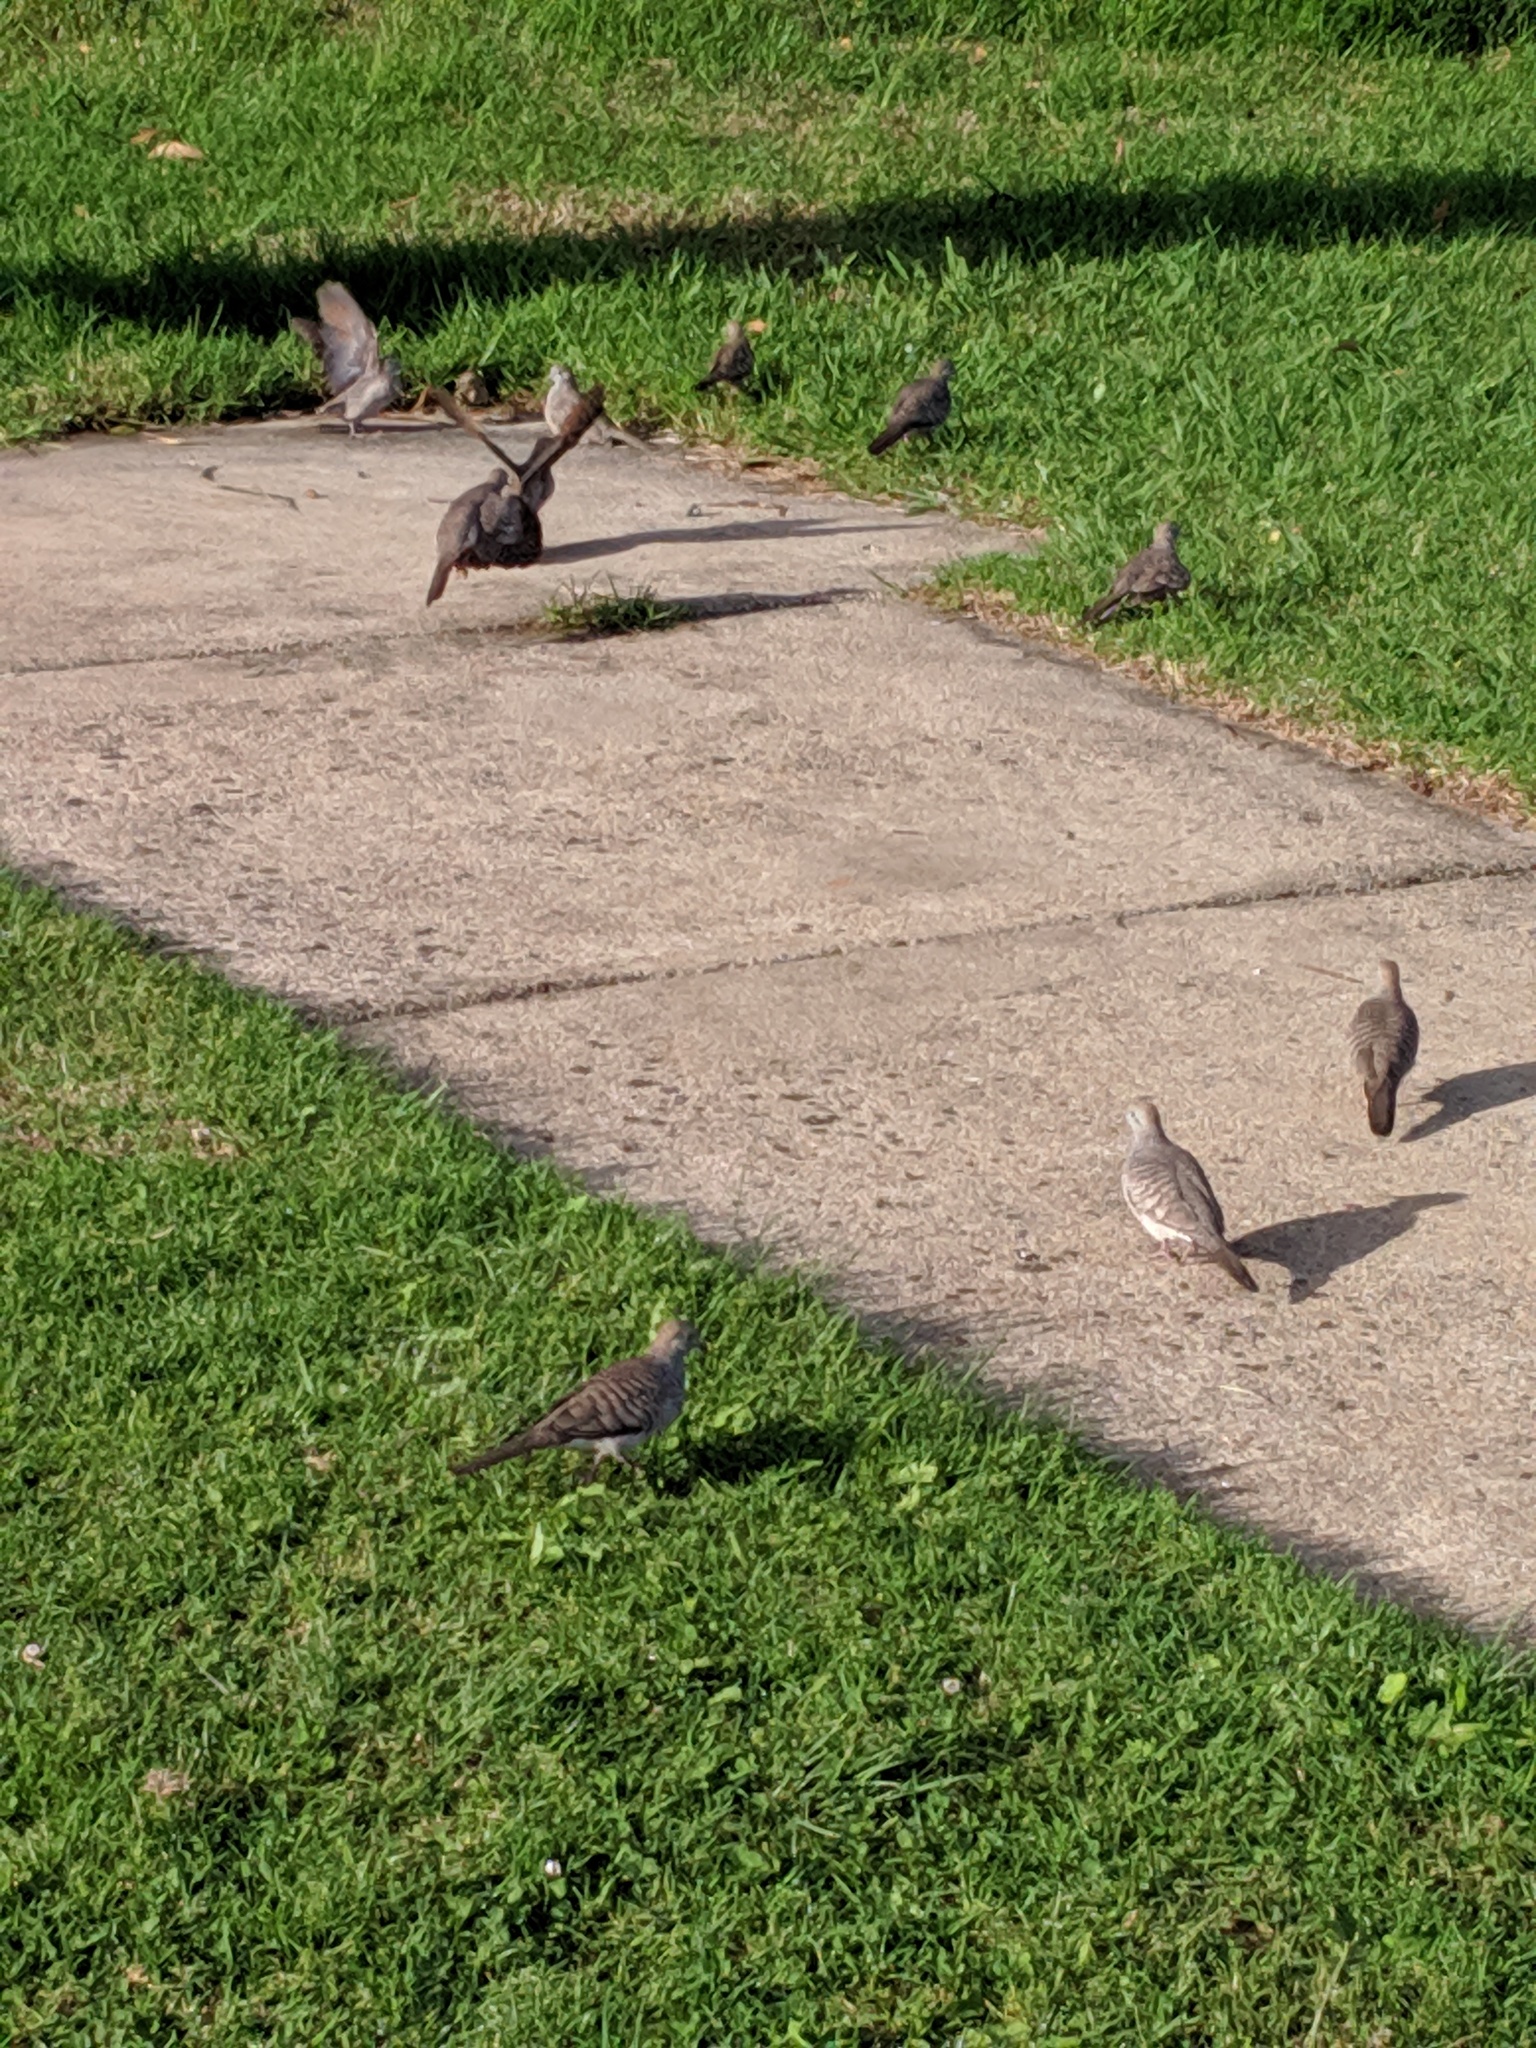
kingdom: Animalia
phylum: Chordata
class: Aves
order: Columbiformes
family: Columbidae
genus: Geopelia
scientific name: Geopelia striata
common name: Zebra dove
